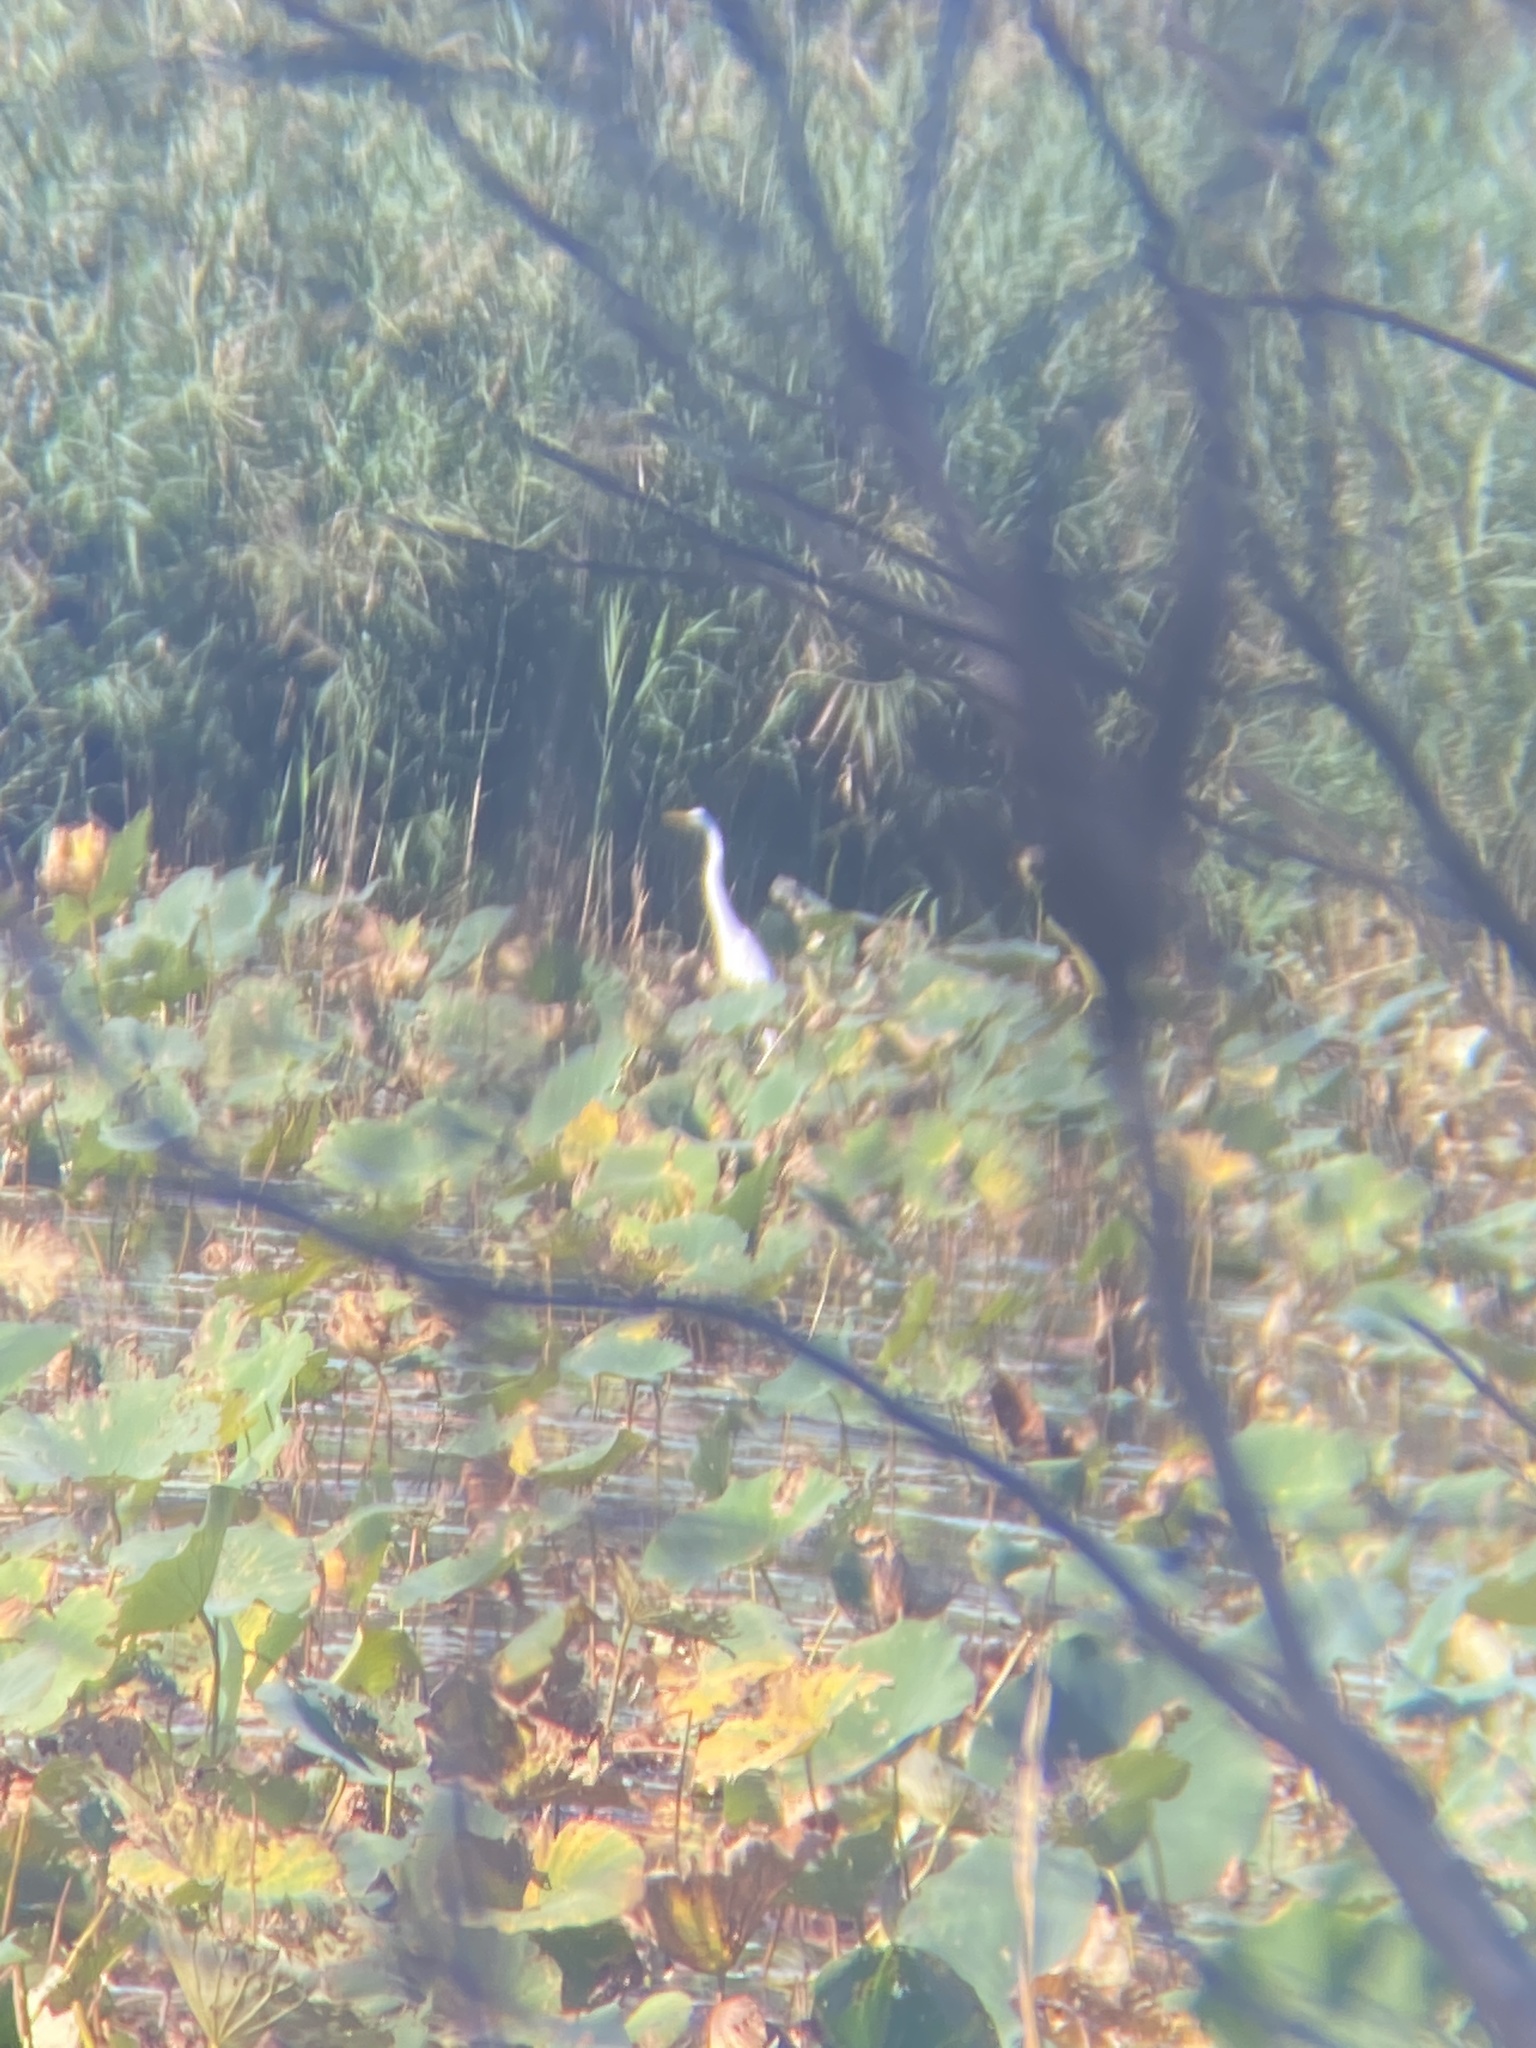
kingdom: Animalia
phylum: Chordata
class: Aves
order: Pelecaniformes
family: Ardeidae
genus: Ardea
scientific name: Ardea alba
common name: Great egret
